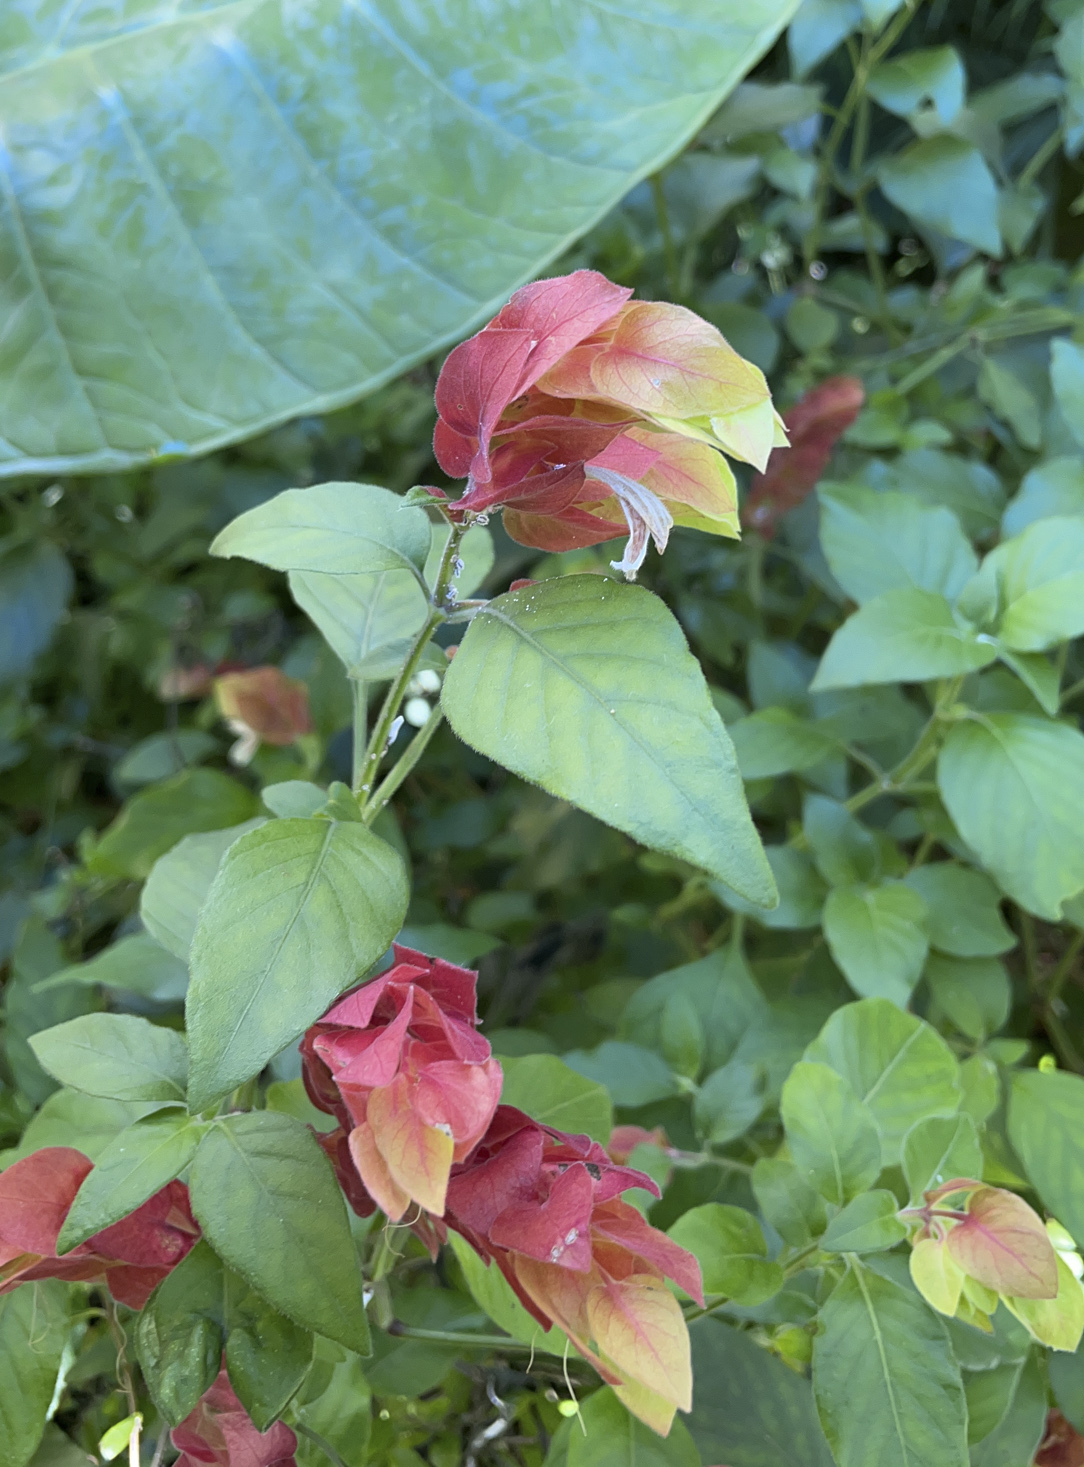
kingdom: Plantae
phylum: Tracheophyta
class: Magnoliopsida
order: Lamiales
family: Acanthaceae
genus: Justicia
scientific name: Justicia brandegeeana
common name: Shrimpplant
